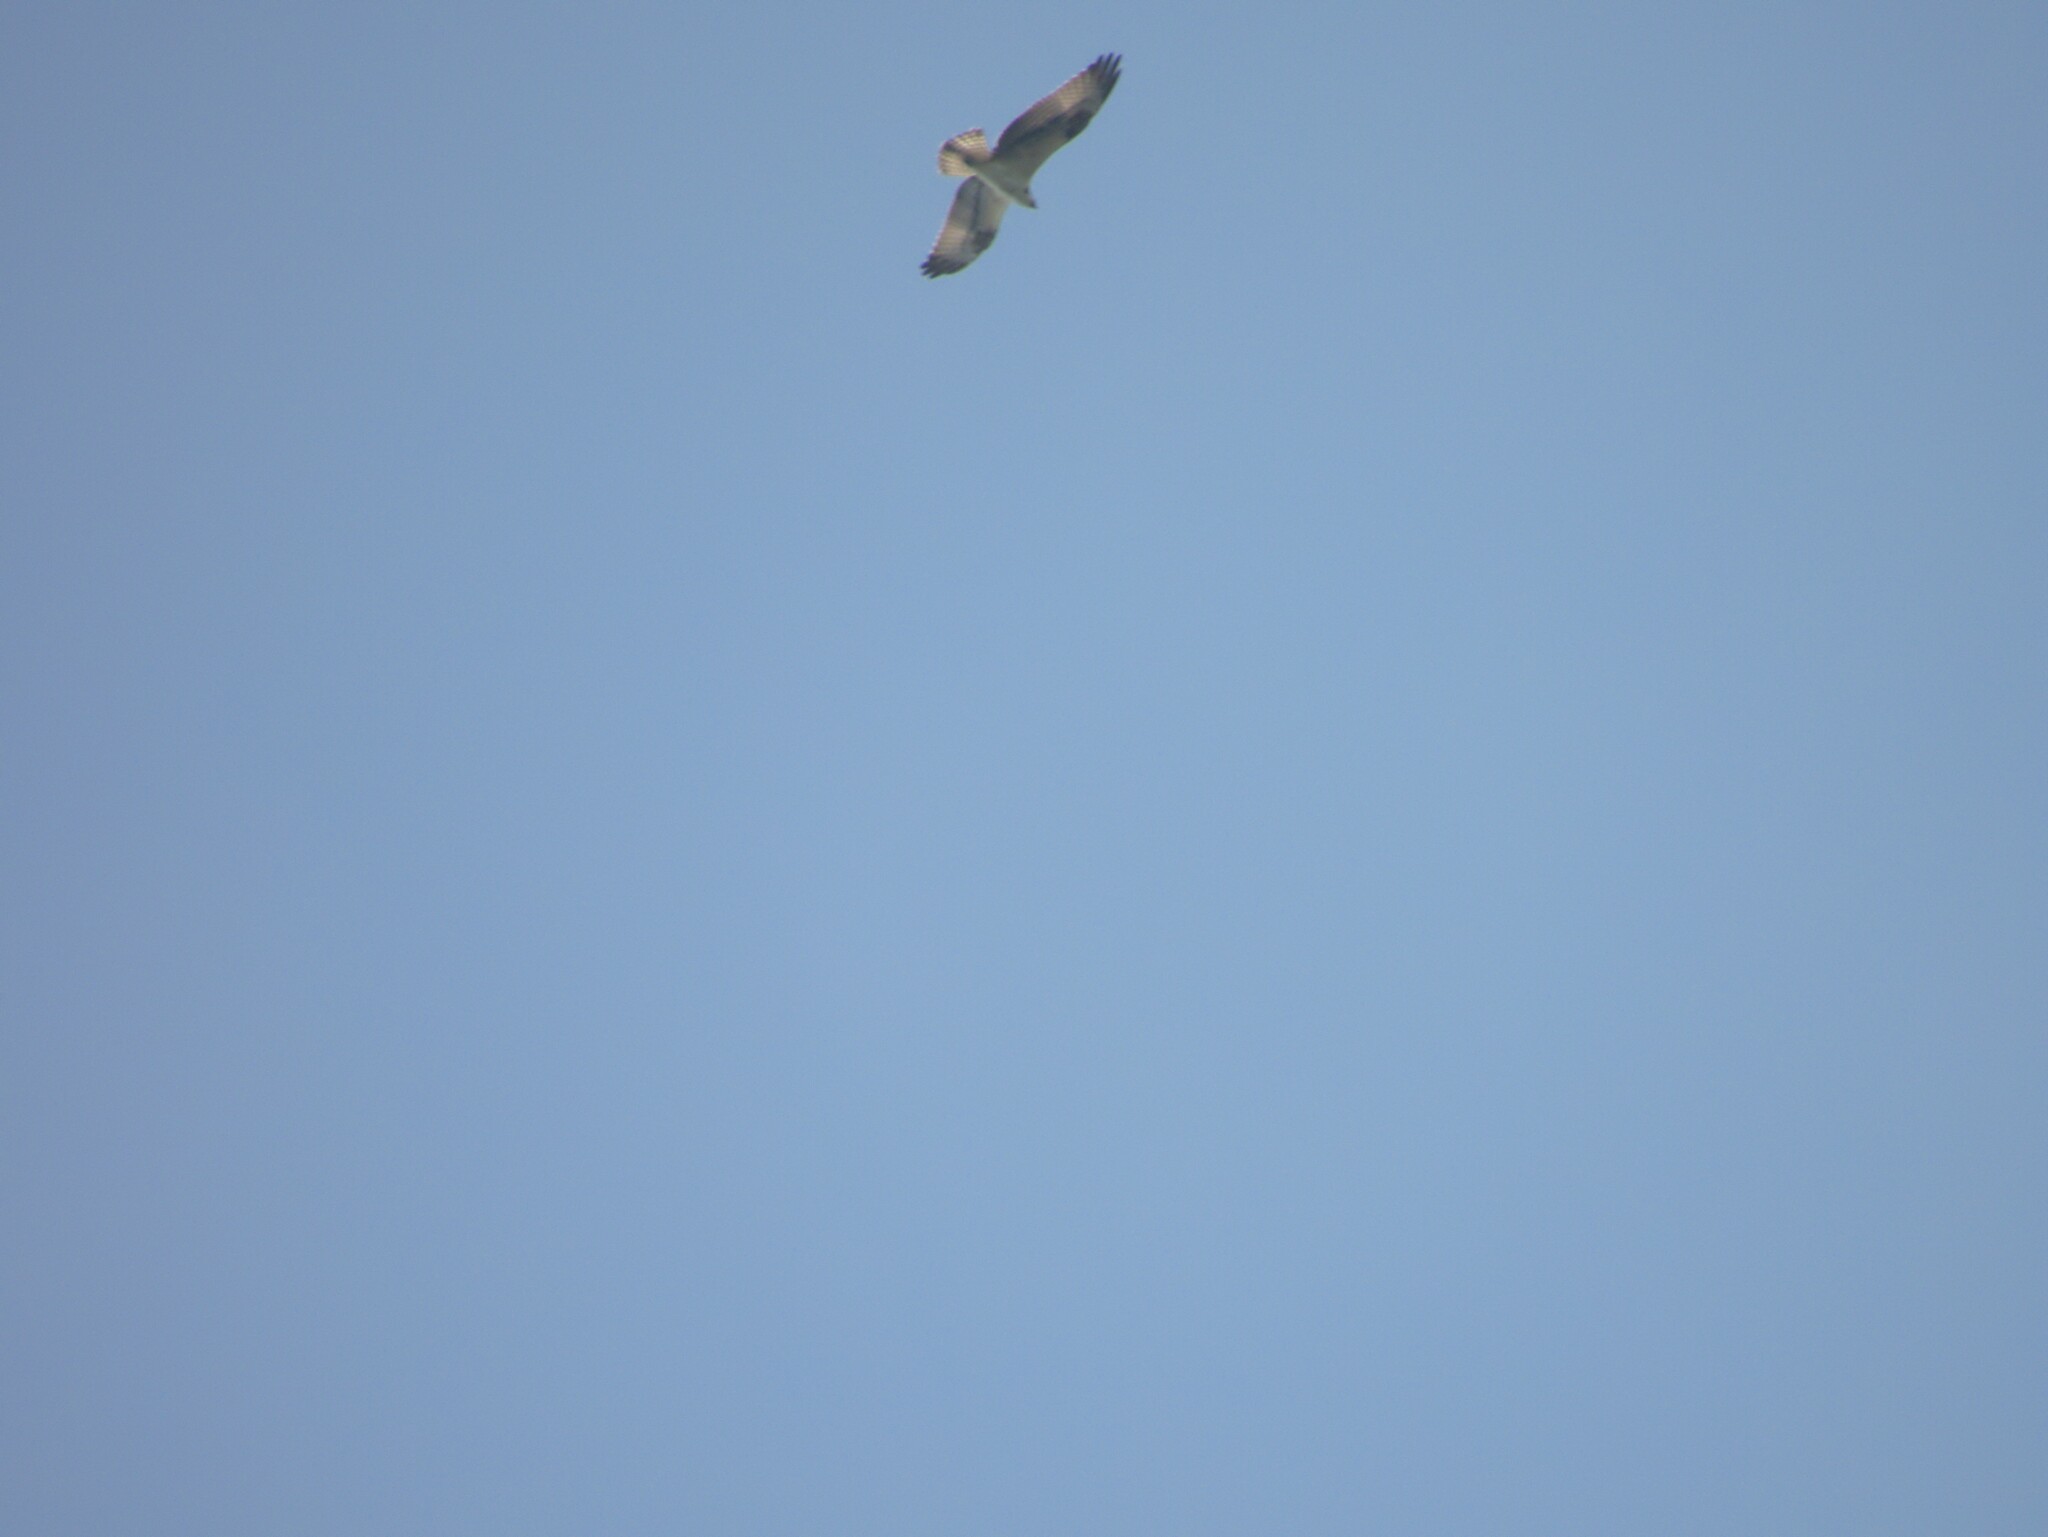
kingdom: Animalia
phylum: Chordata
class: Aves
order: Accipitriformes
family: Pandionidae
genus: Pandion
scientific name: Pandion haliaetus
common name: Osprey
